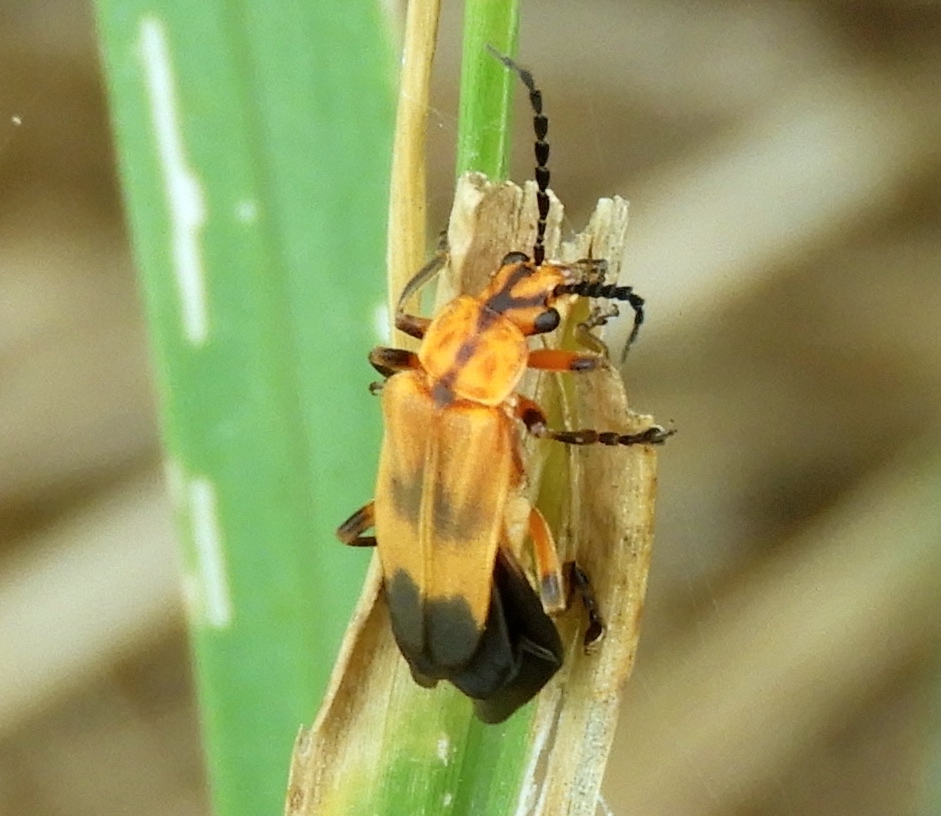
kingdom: Animalia
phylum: Arthropoda
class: Insecta
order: Coleoptera
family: Cantharidae
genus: Daiphron
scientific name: Daiphron proteum
